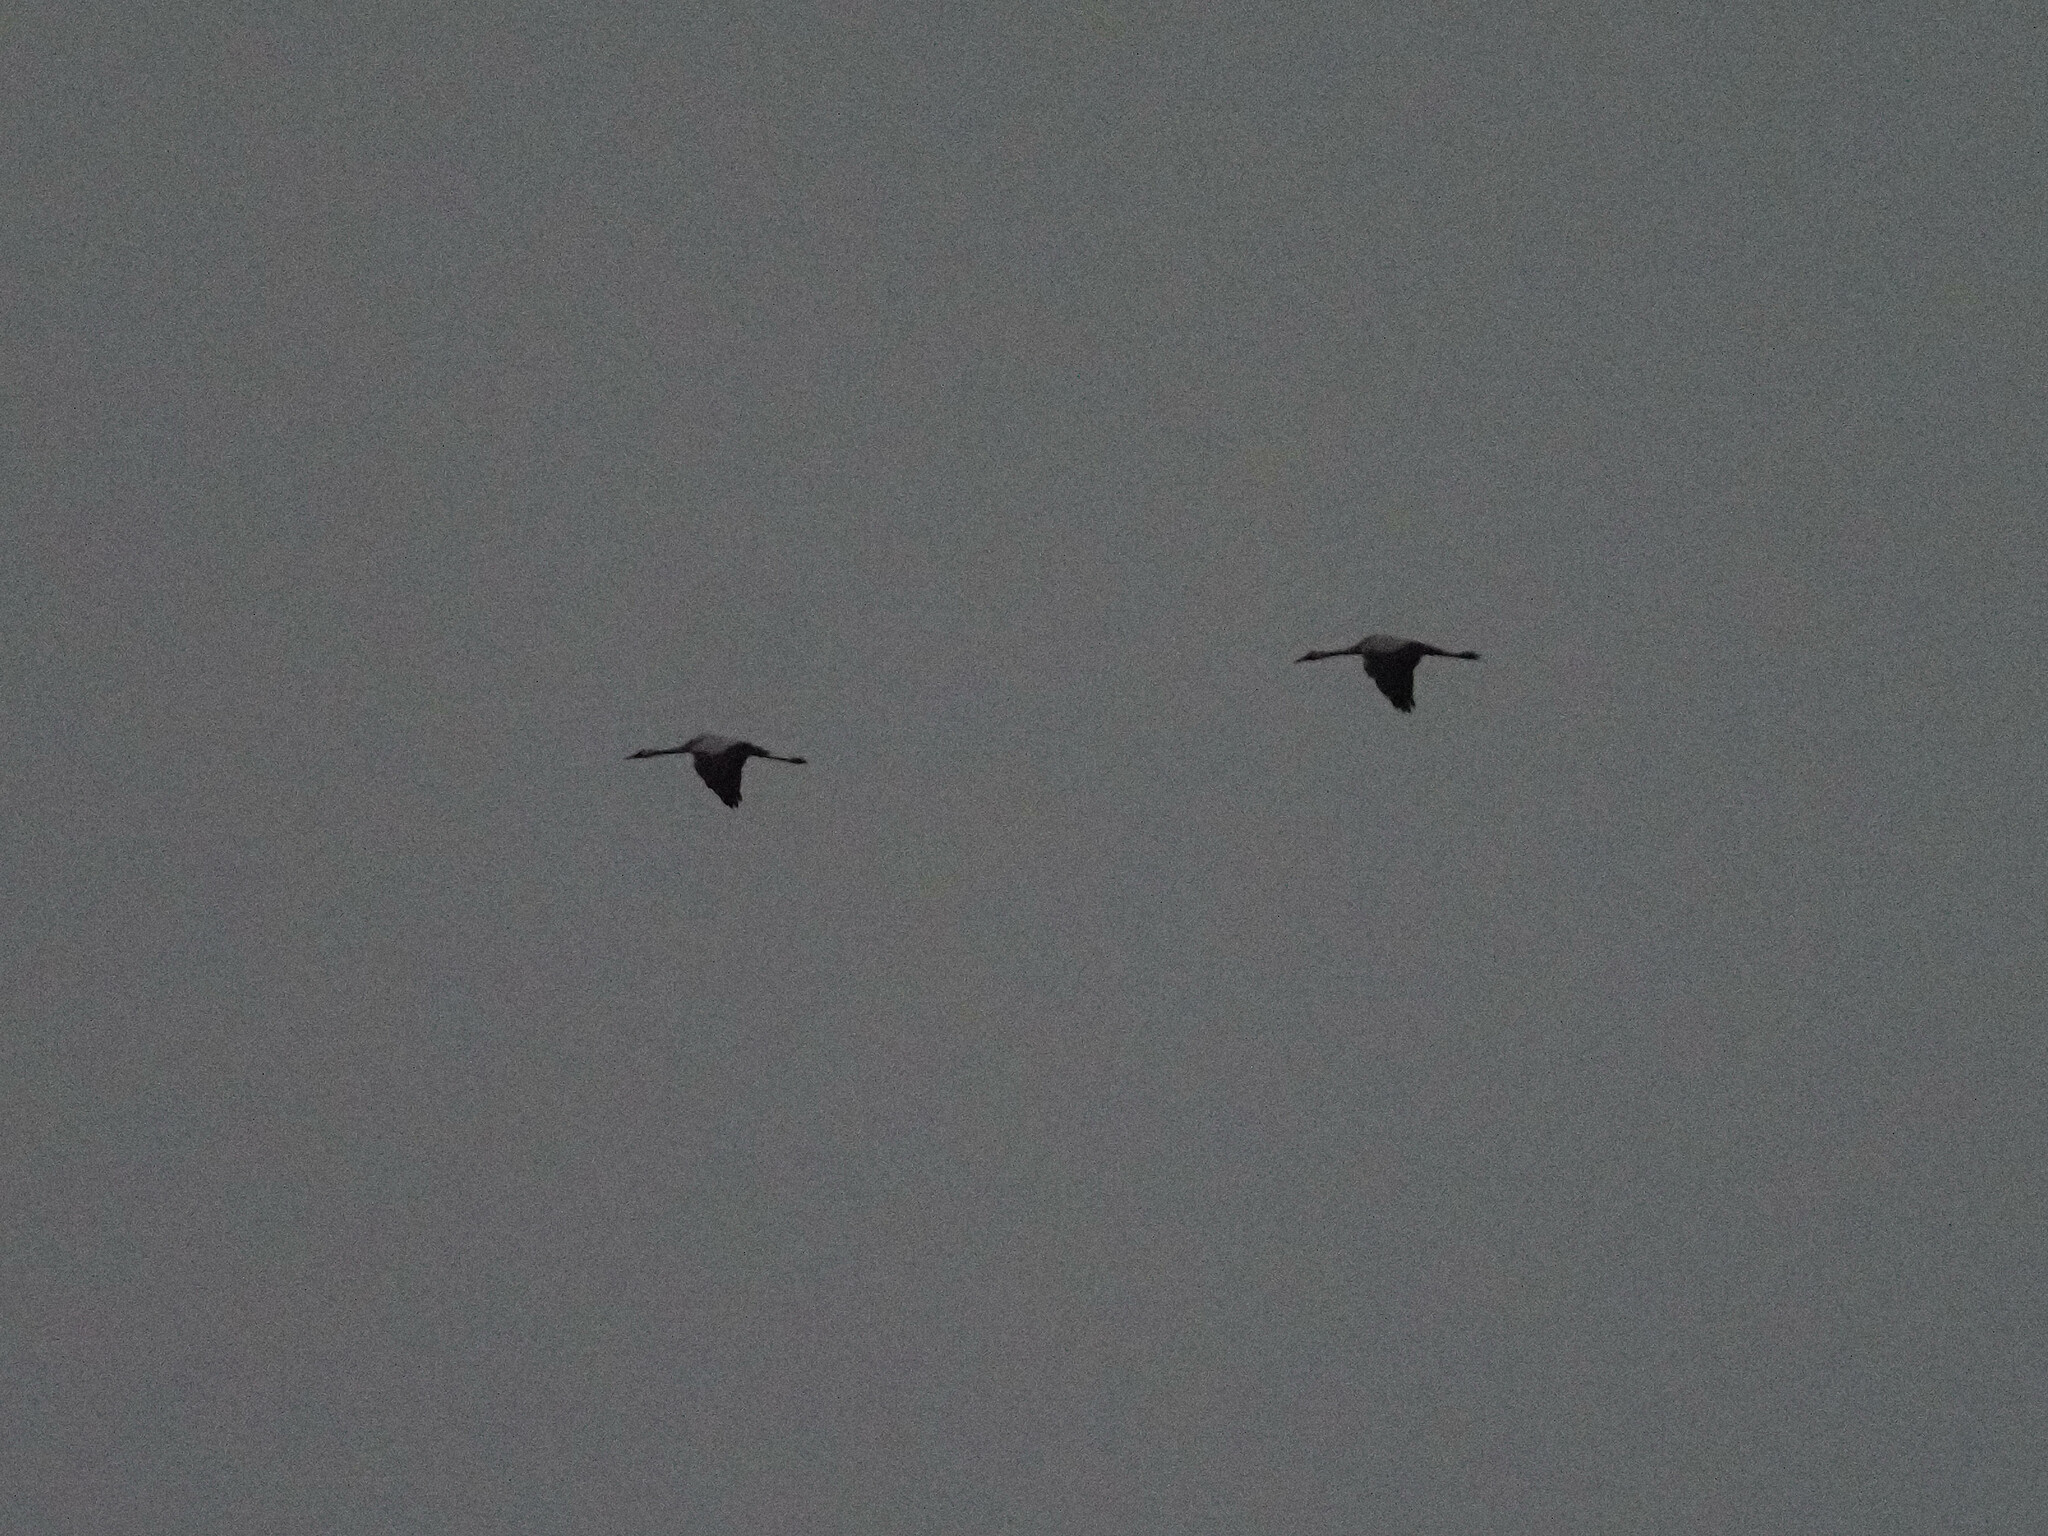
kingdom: Animalia
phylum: Chordata
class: Aves
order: Gruiformes
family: Gruidae
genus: Grus
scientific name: Grus grus
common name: Common crane
